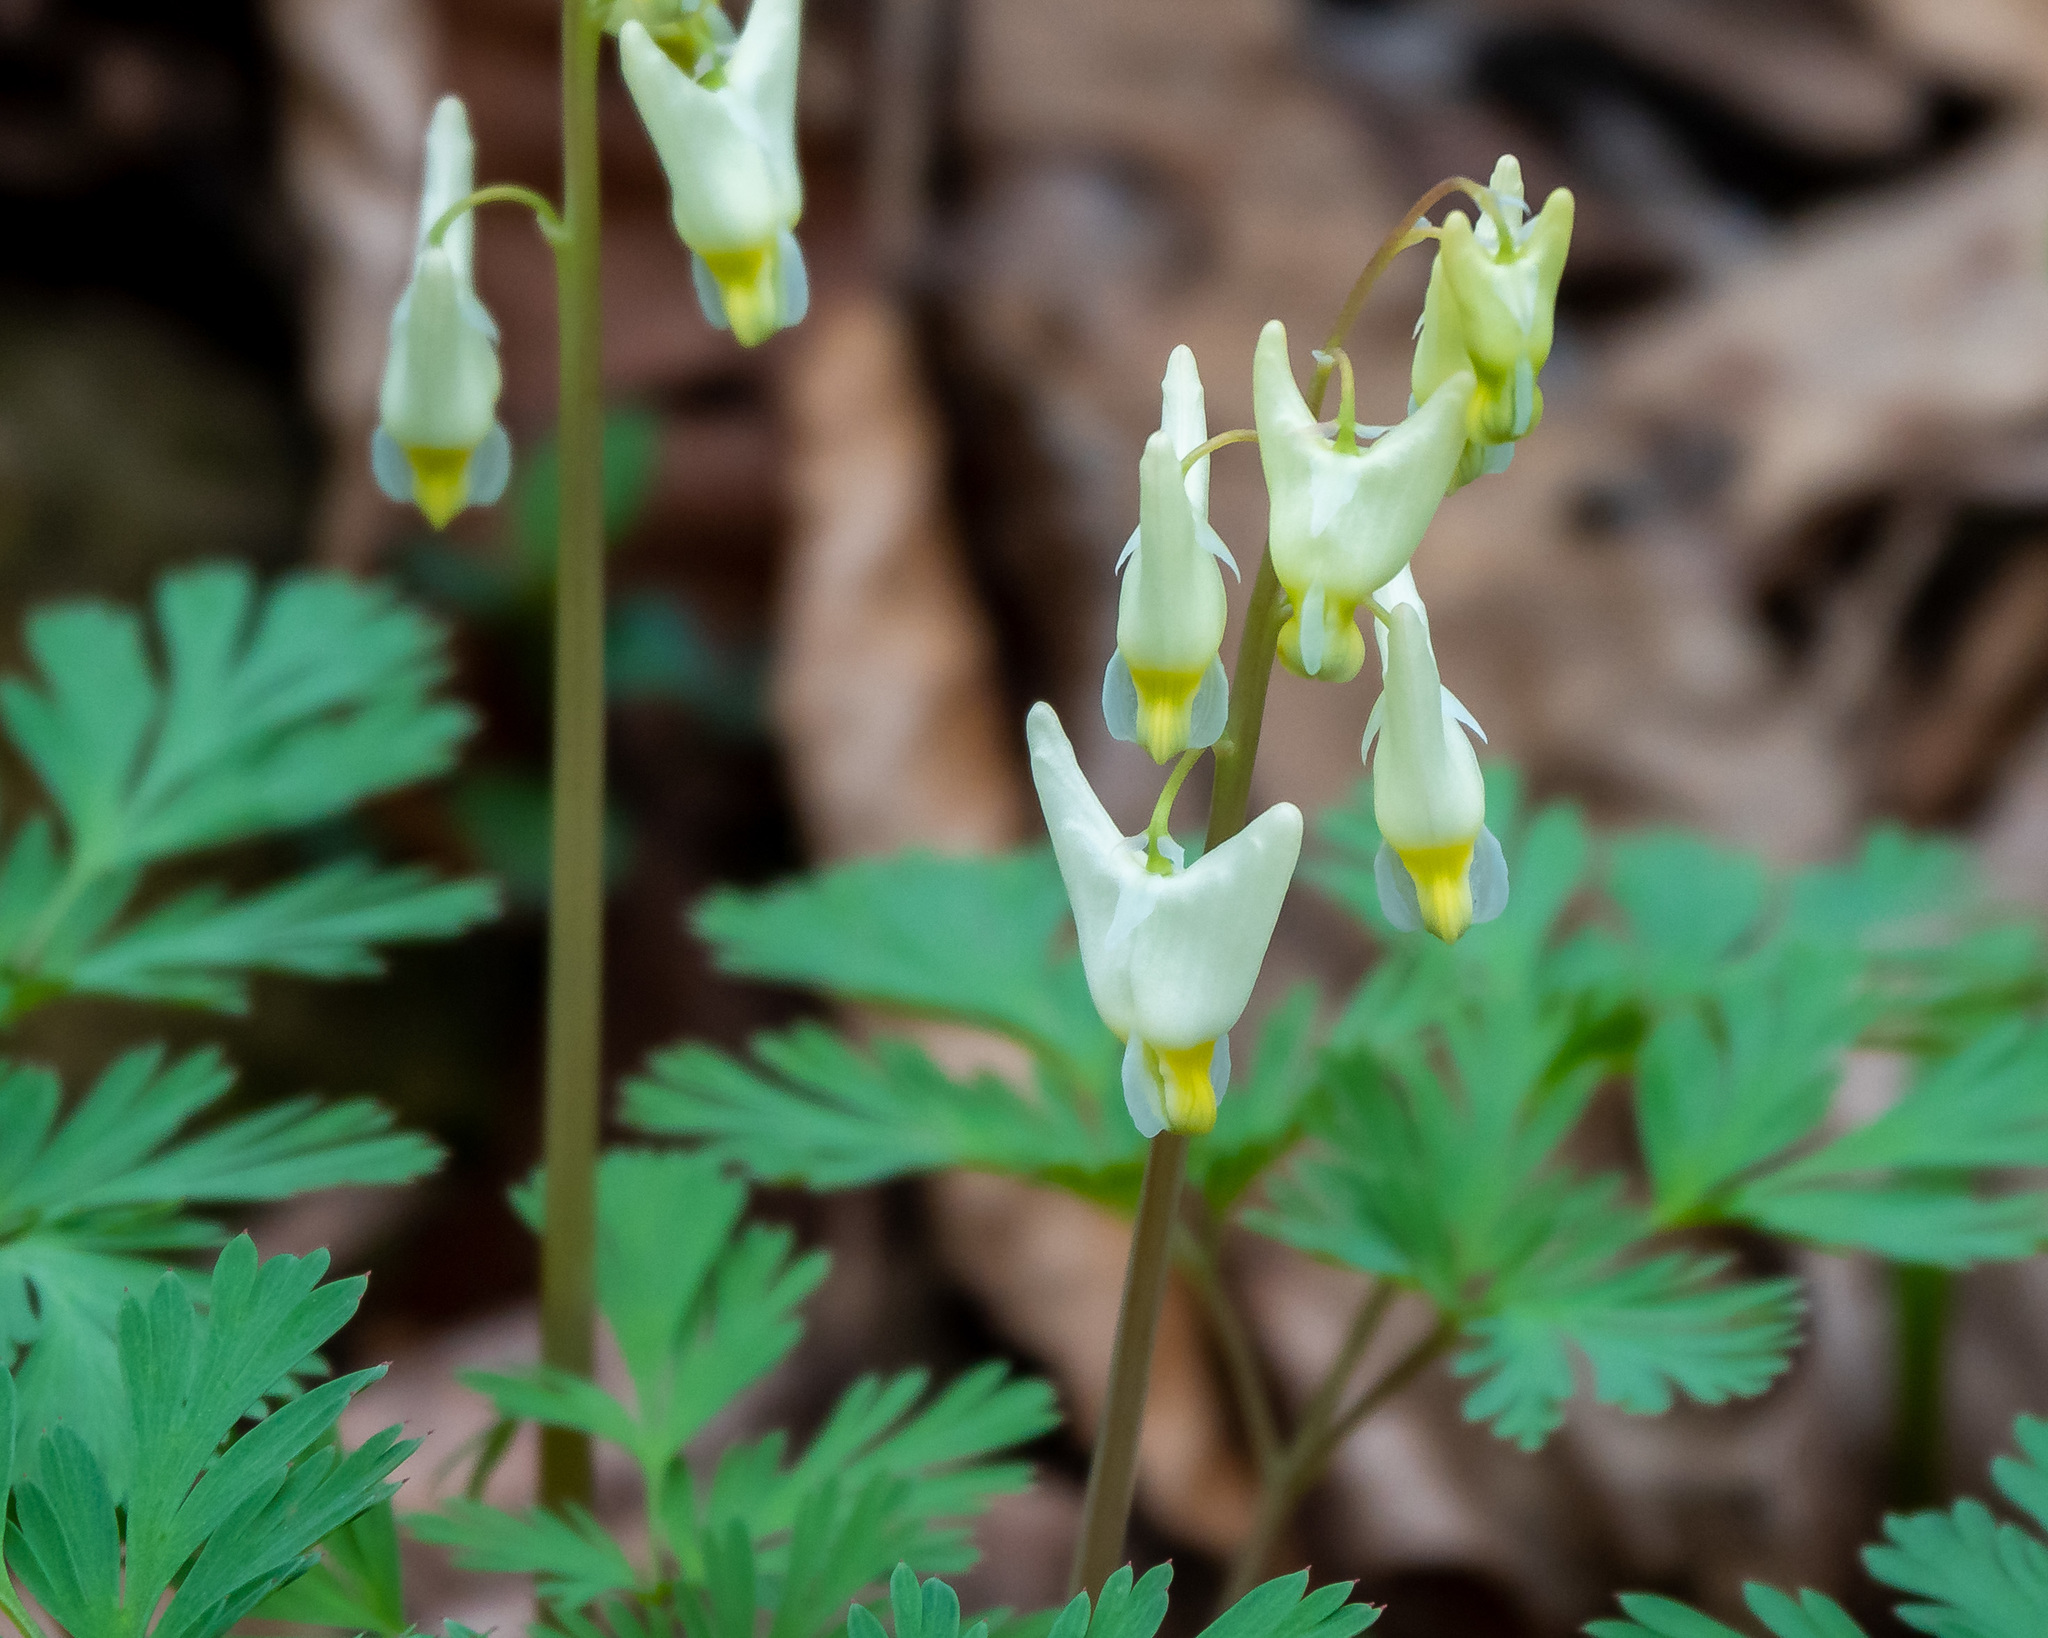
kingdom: Plantae
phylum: Tracheophyta
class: Magnoliopsida
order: Ranunculales
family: Papaveraceae
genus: Dicentra
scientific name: Dicentra cucullaria
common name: Dutchman's breeches
